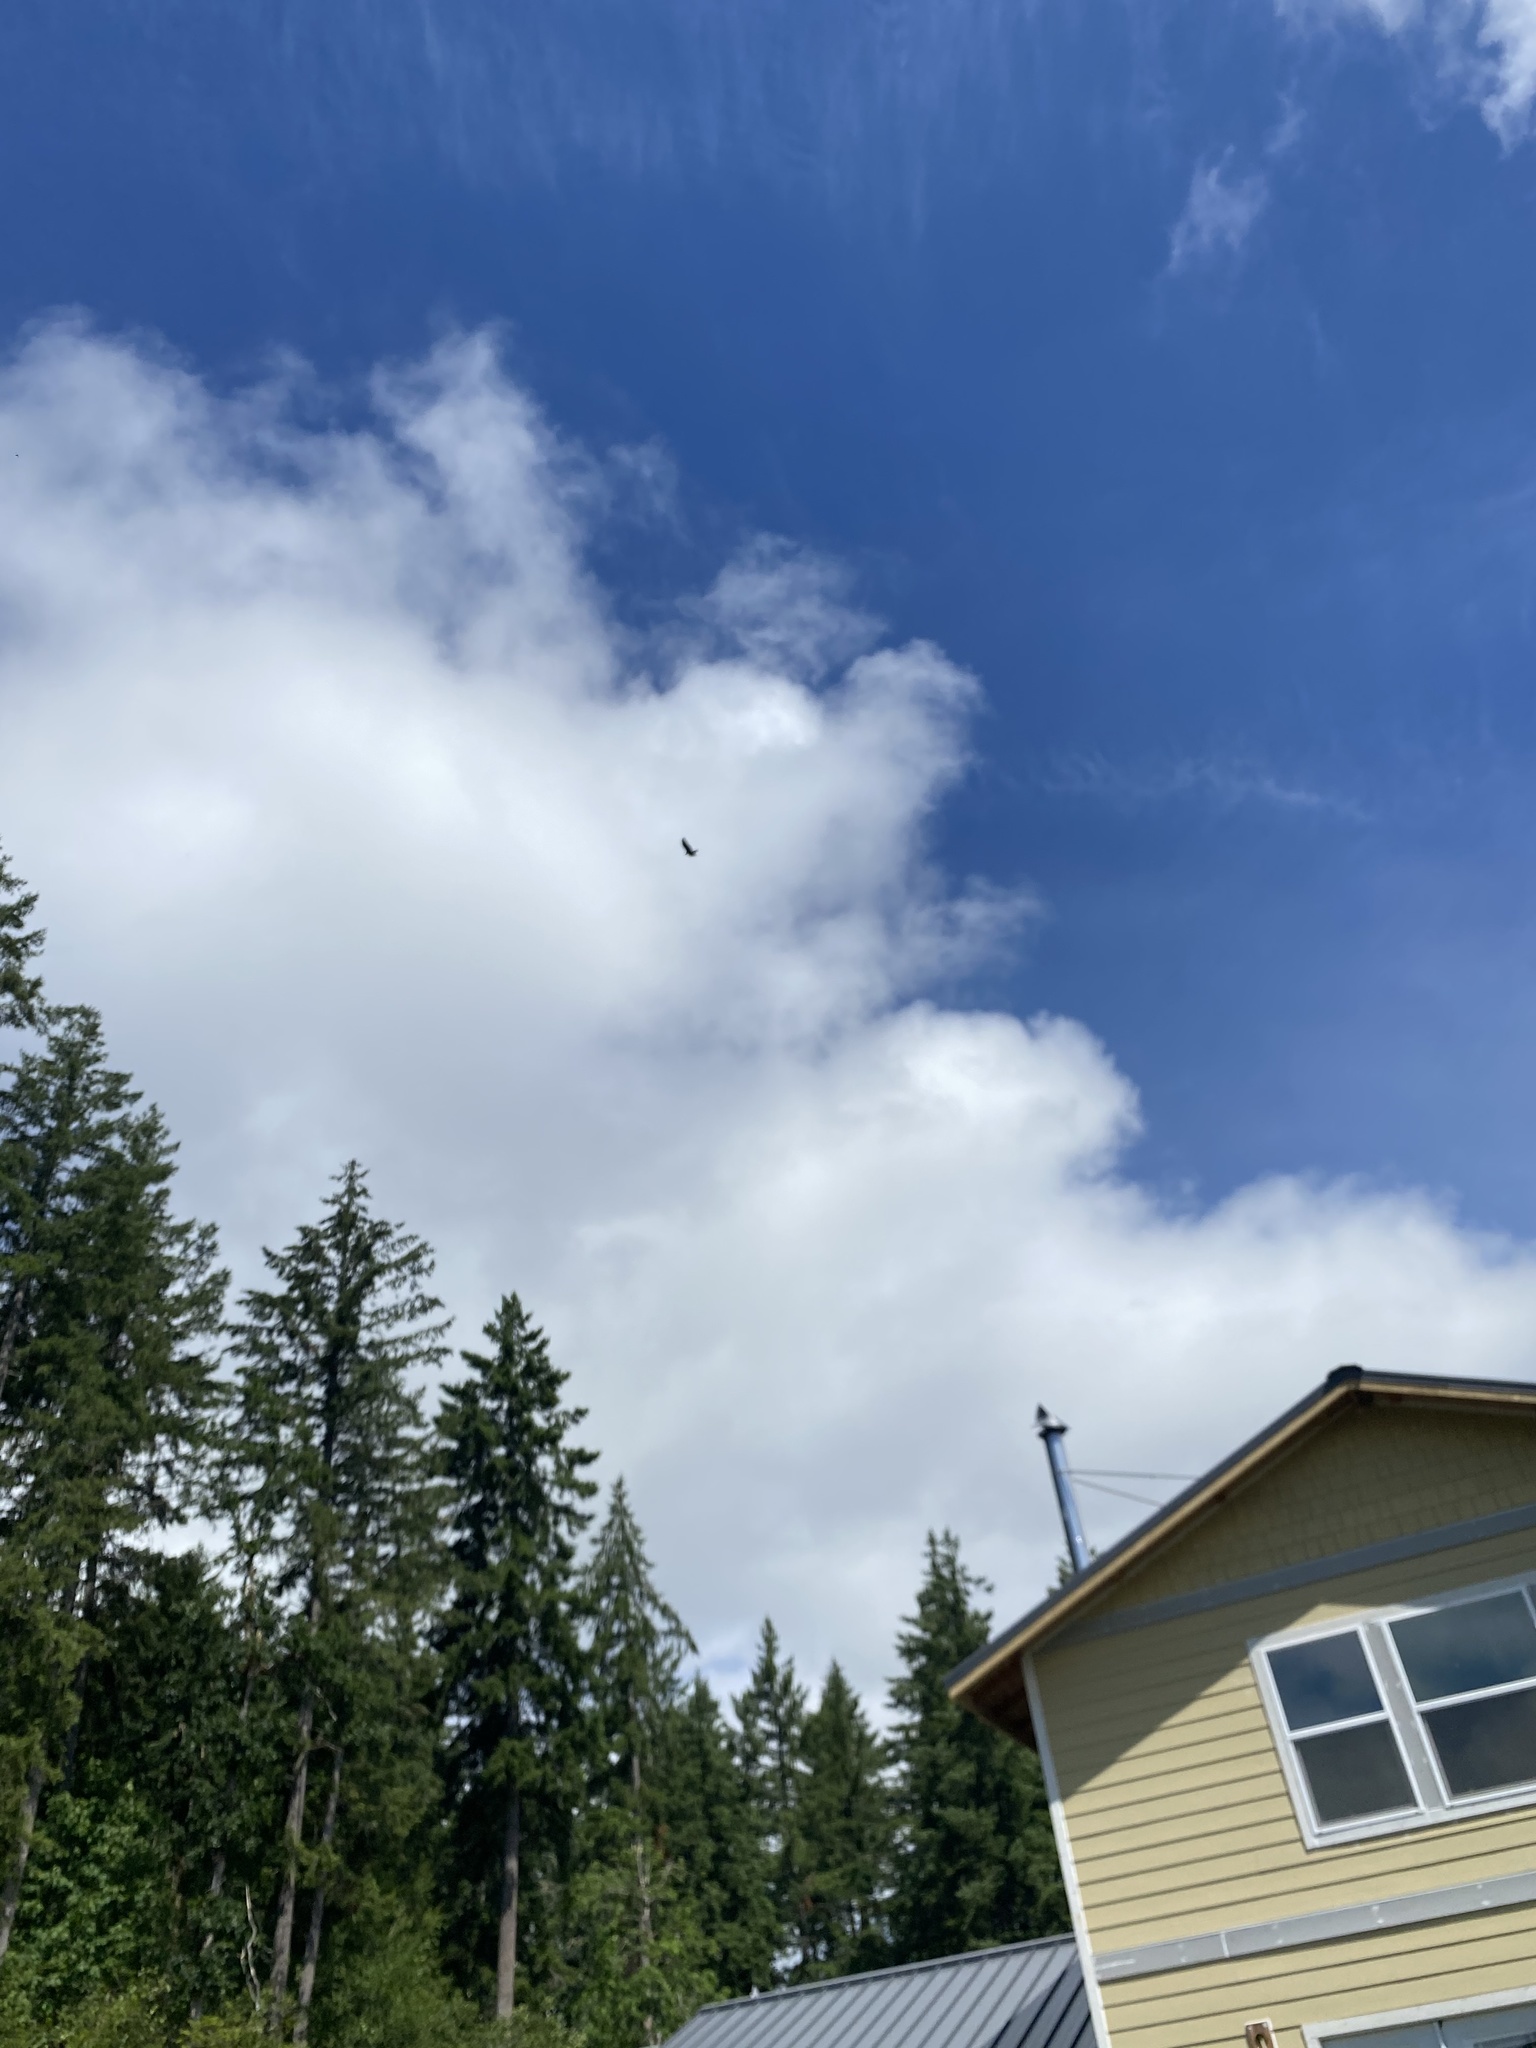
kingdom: Animalia
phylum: Chordata
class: Aves
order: Accipitriformes
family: Cathartidae
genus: Cathartes
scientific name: Cathartes aura
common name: Turkey vulture
